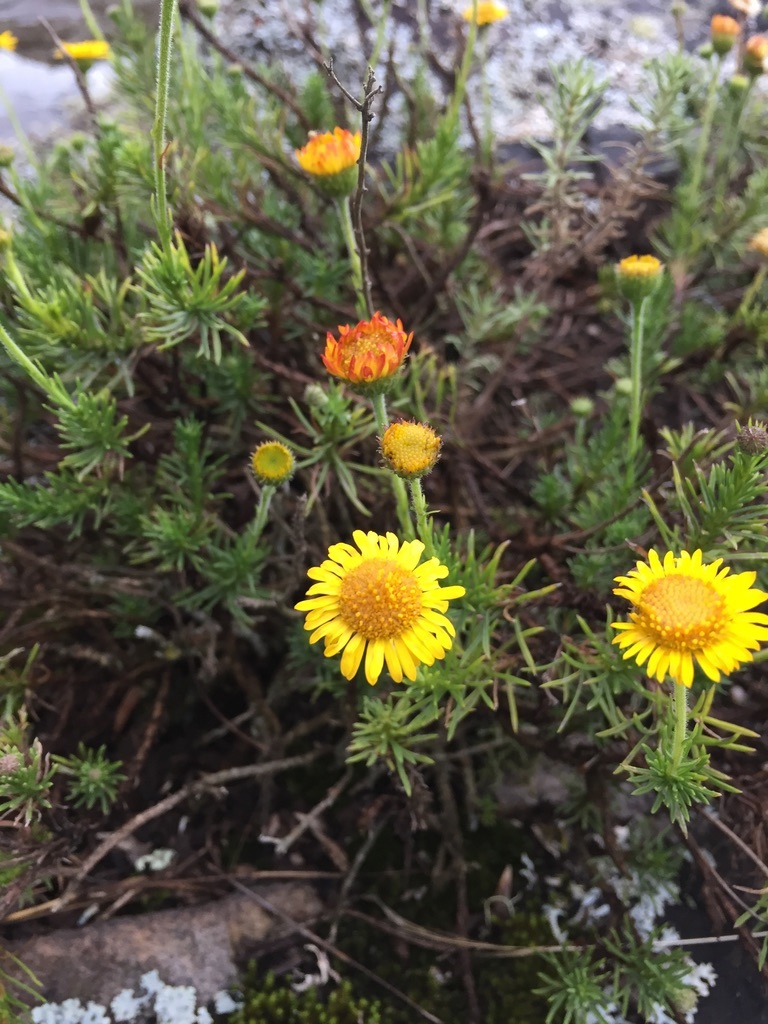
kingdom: Plantae
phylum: Tracheophyta
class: Magnoliopsida
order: Asterales
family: Asteraceae
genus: Neja
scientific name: Neja pinifolia
